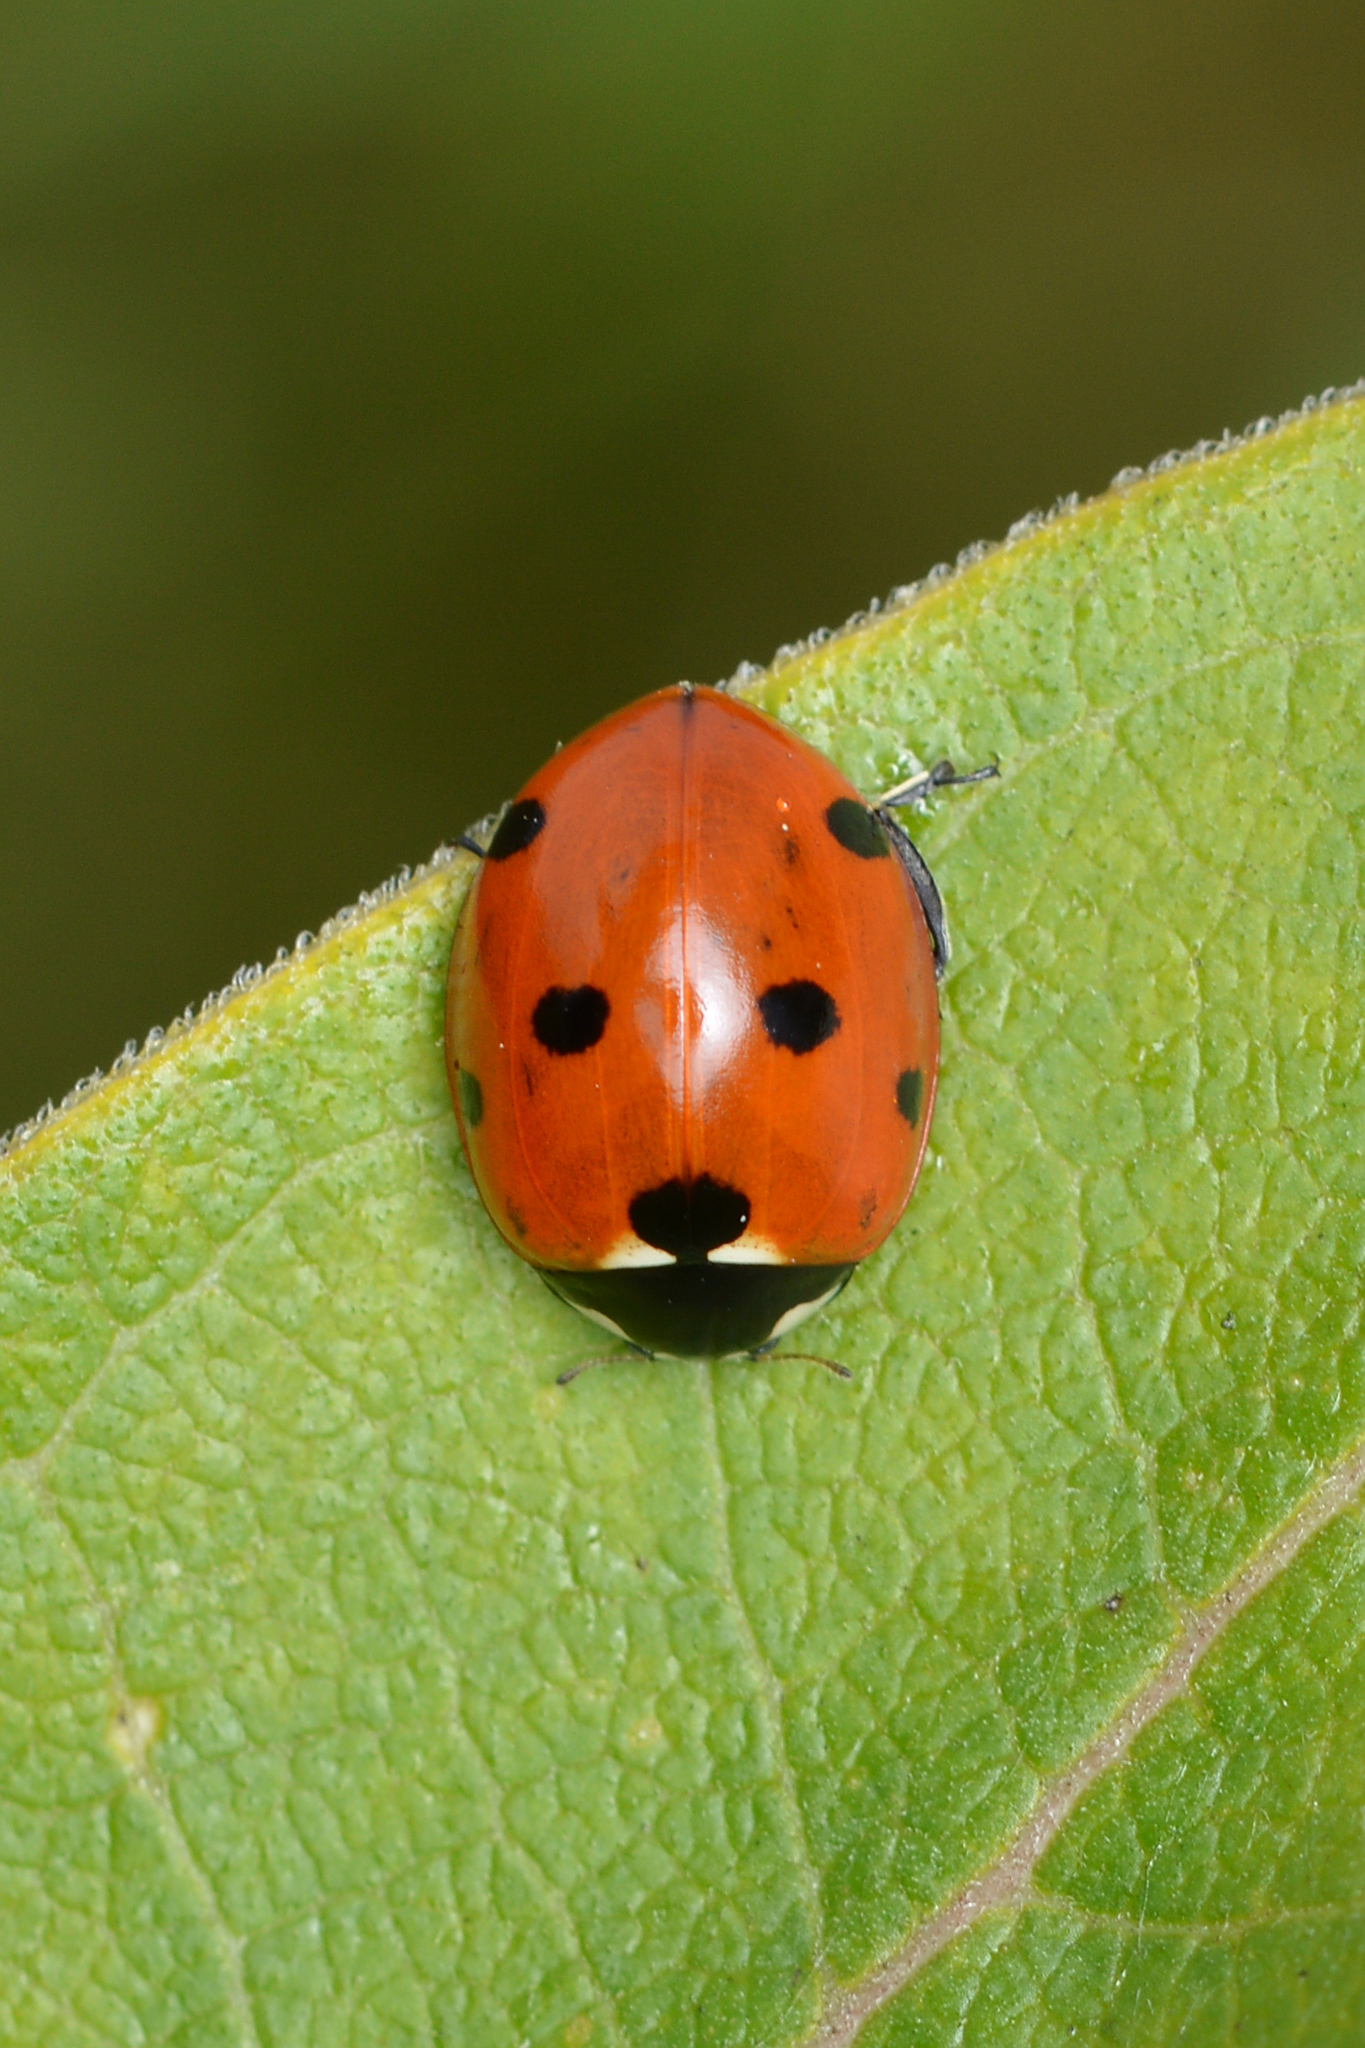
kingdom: Animalia
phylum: Arthropoda
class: Insecta
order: Coleoptera
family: Coccinellidae
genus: Coccinella
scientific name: Coccinella septempunctata
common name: Sevenspotted lady beetle
